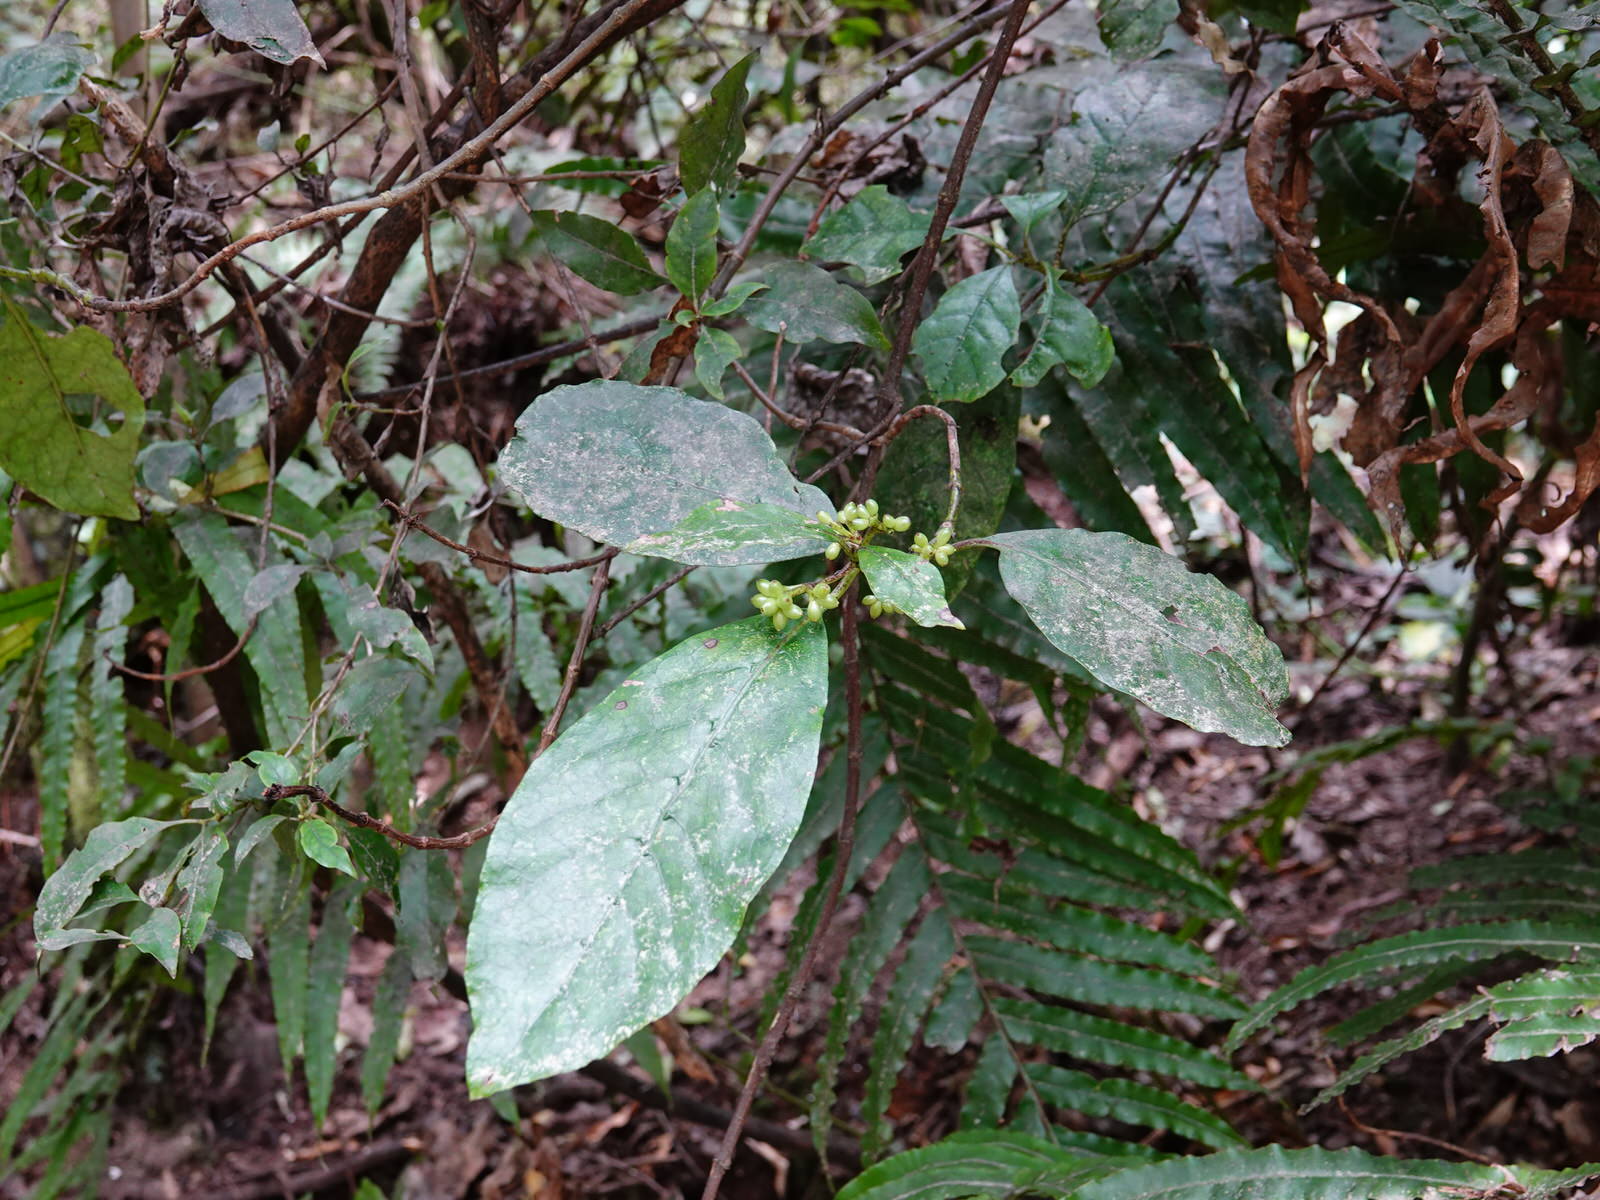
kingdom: Plantae
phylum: Tracheophyta
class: Magnoliopsida
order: Gentianales
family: Rubiaceae
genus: Coprosma
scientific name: Coprosma autumnalis
